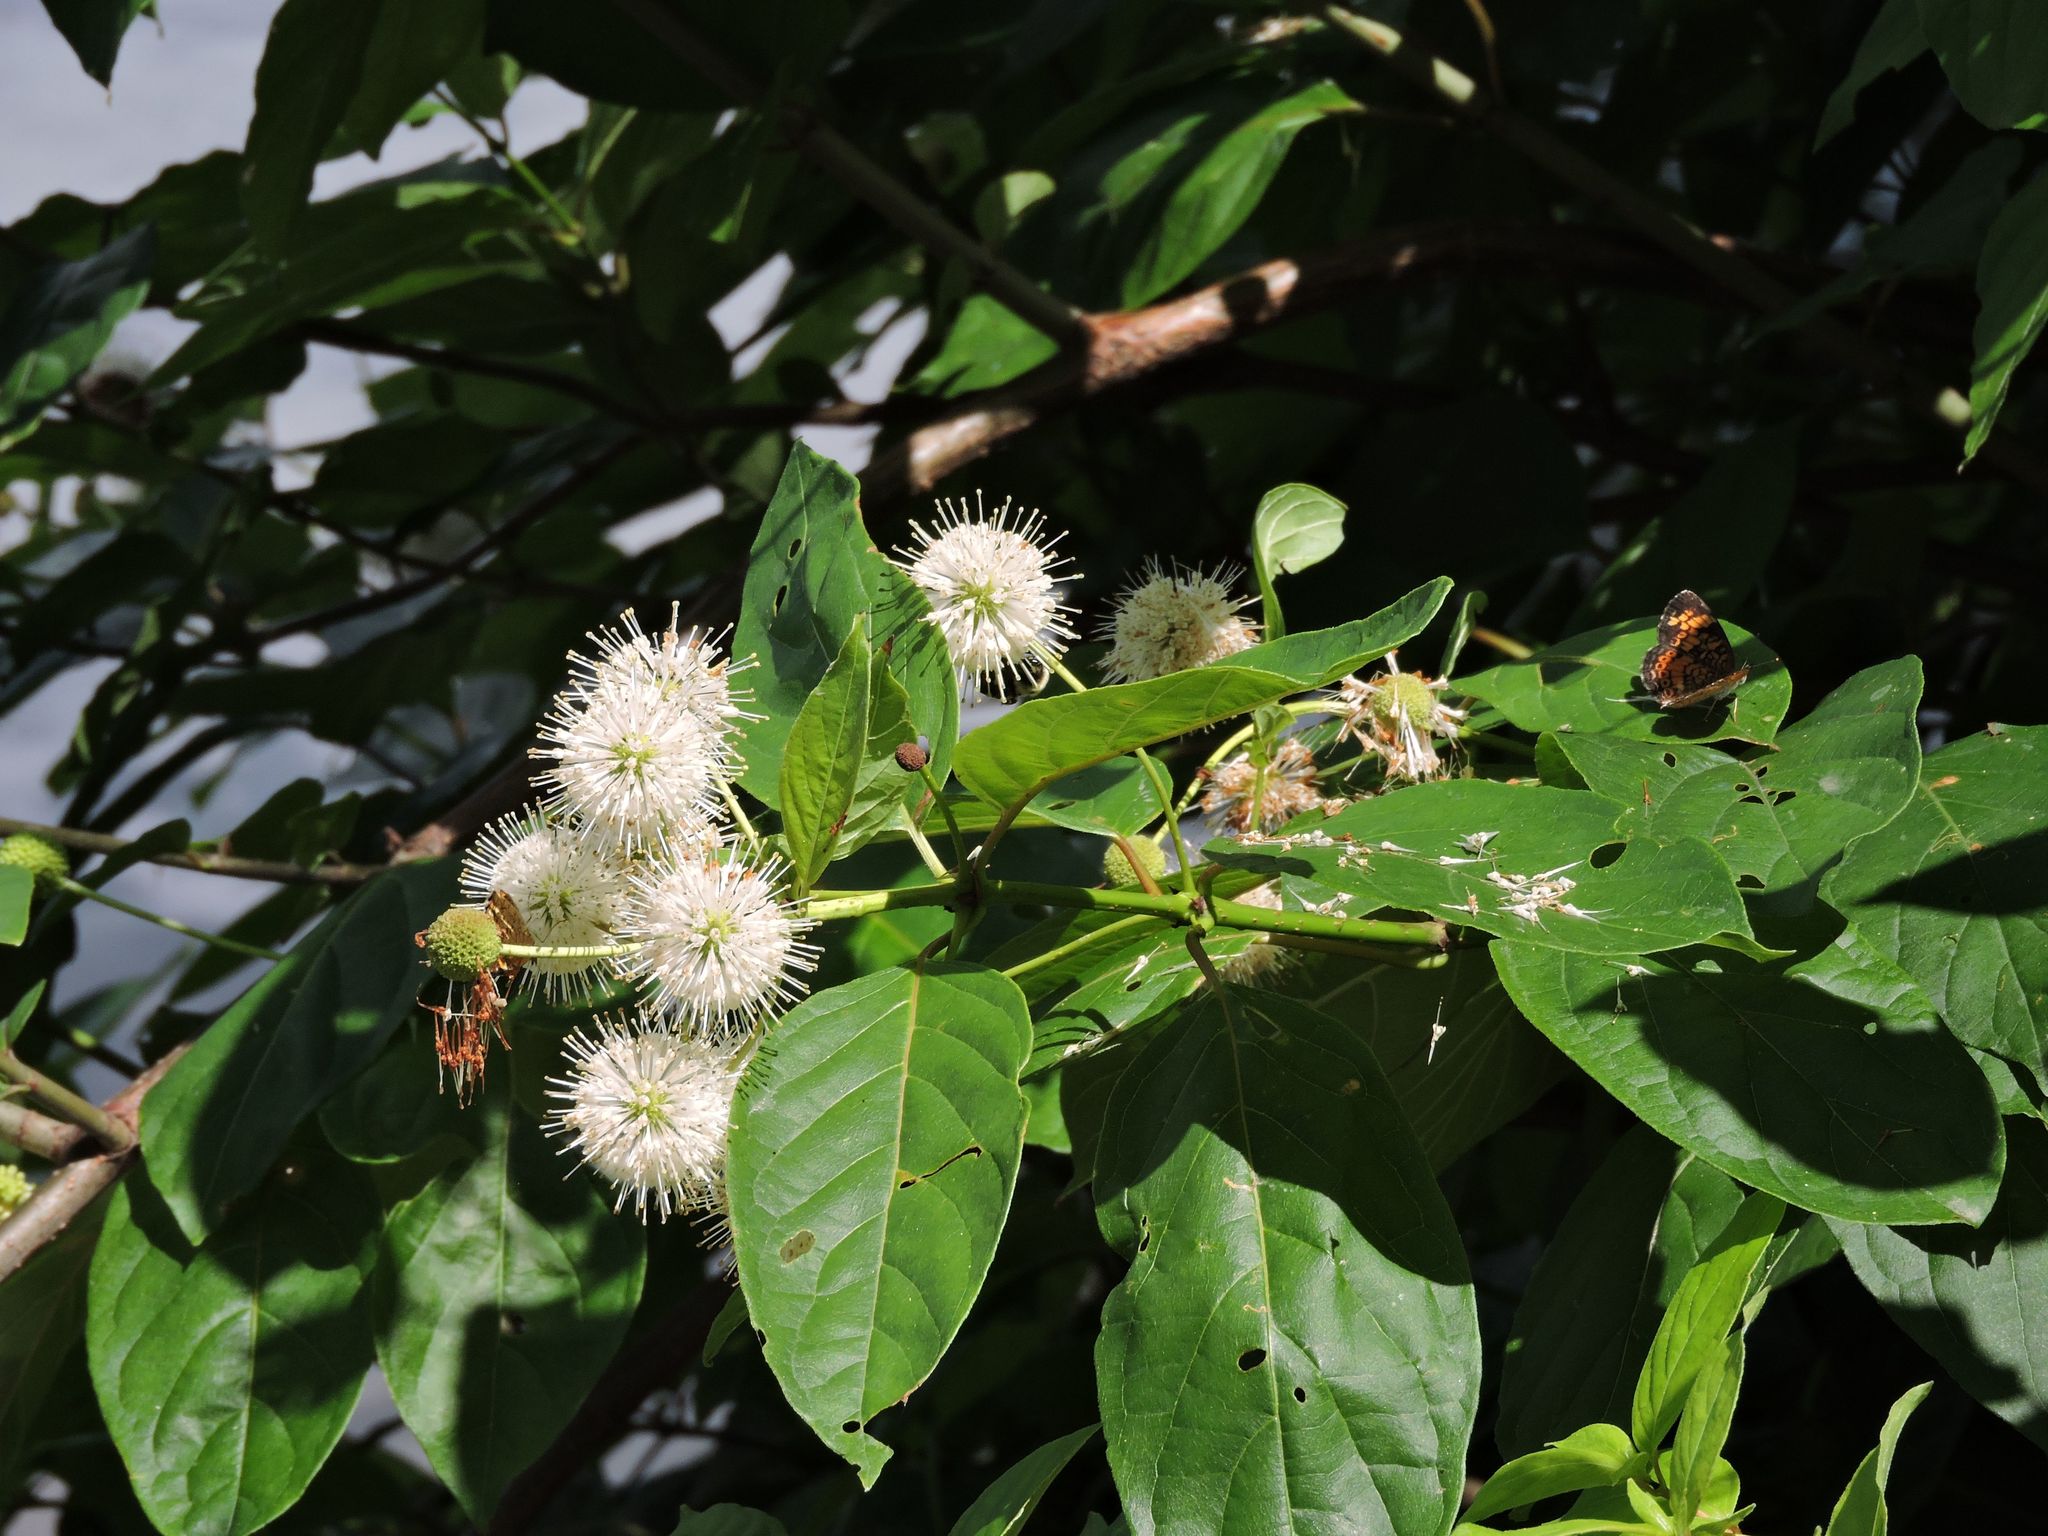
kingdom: Plantae
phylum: Tracheophyta
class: Magnoliopsida
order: Gentianales
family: Rubiaceae
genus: Cephalanthus
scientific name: Cephalanthus occidentalis
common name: Button-willow
